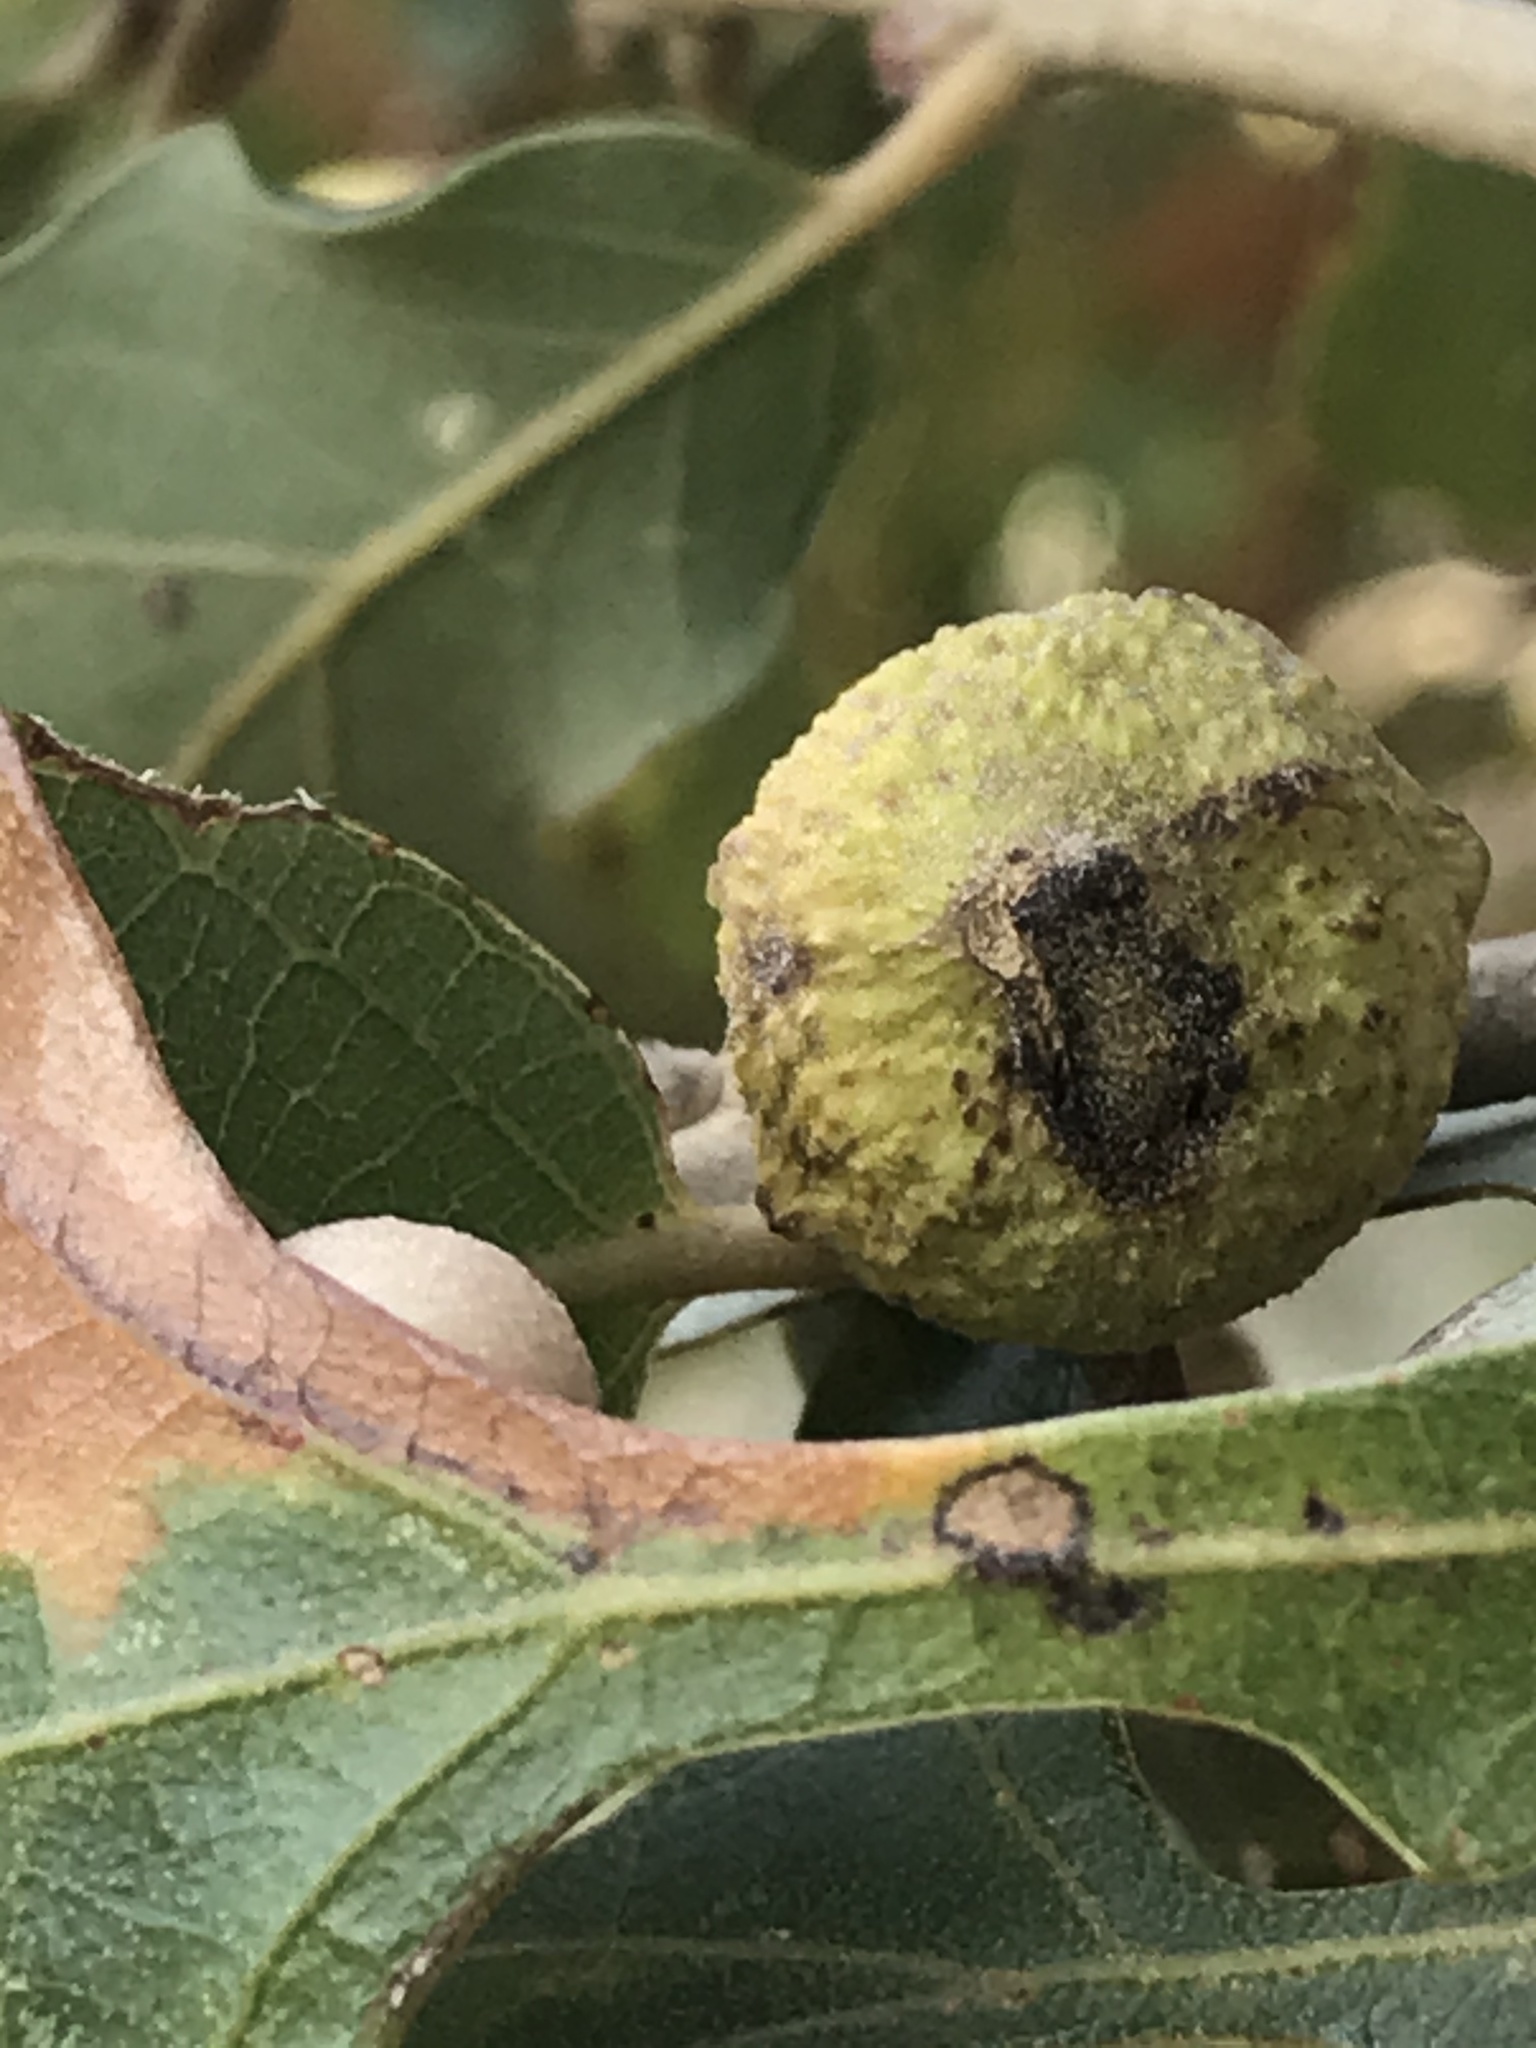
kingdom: Animalia
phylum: Arthropoda
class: Insecta
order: Hymenoptera
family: Cynipidae
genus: Disholcaspis
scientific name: Disholcaspis
